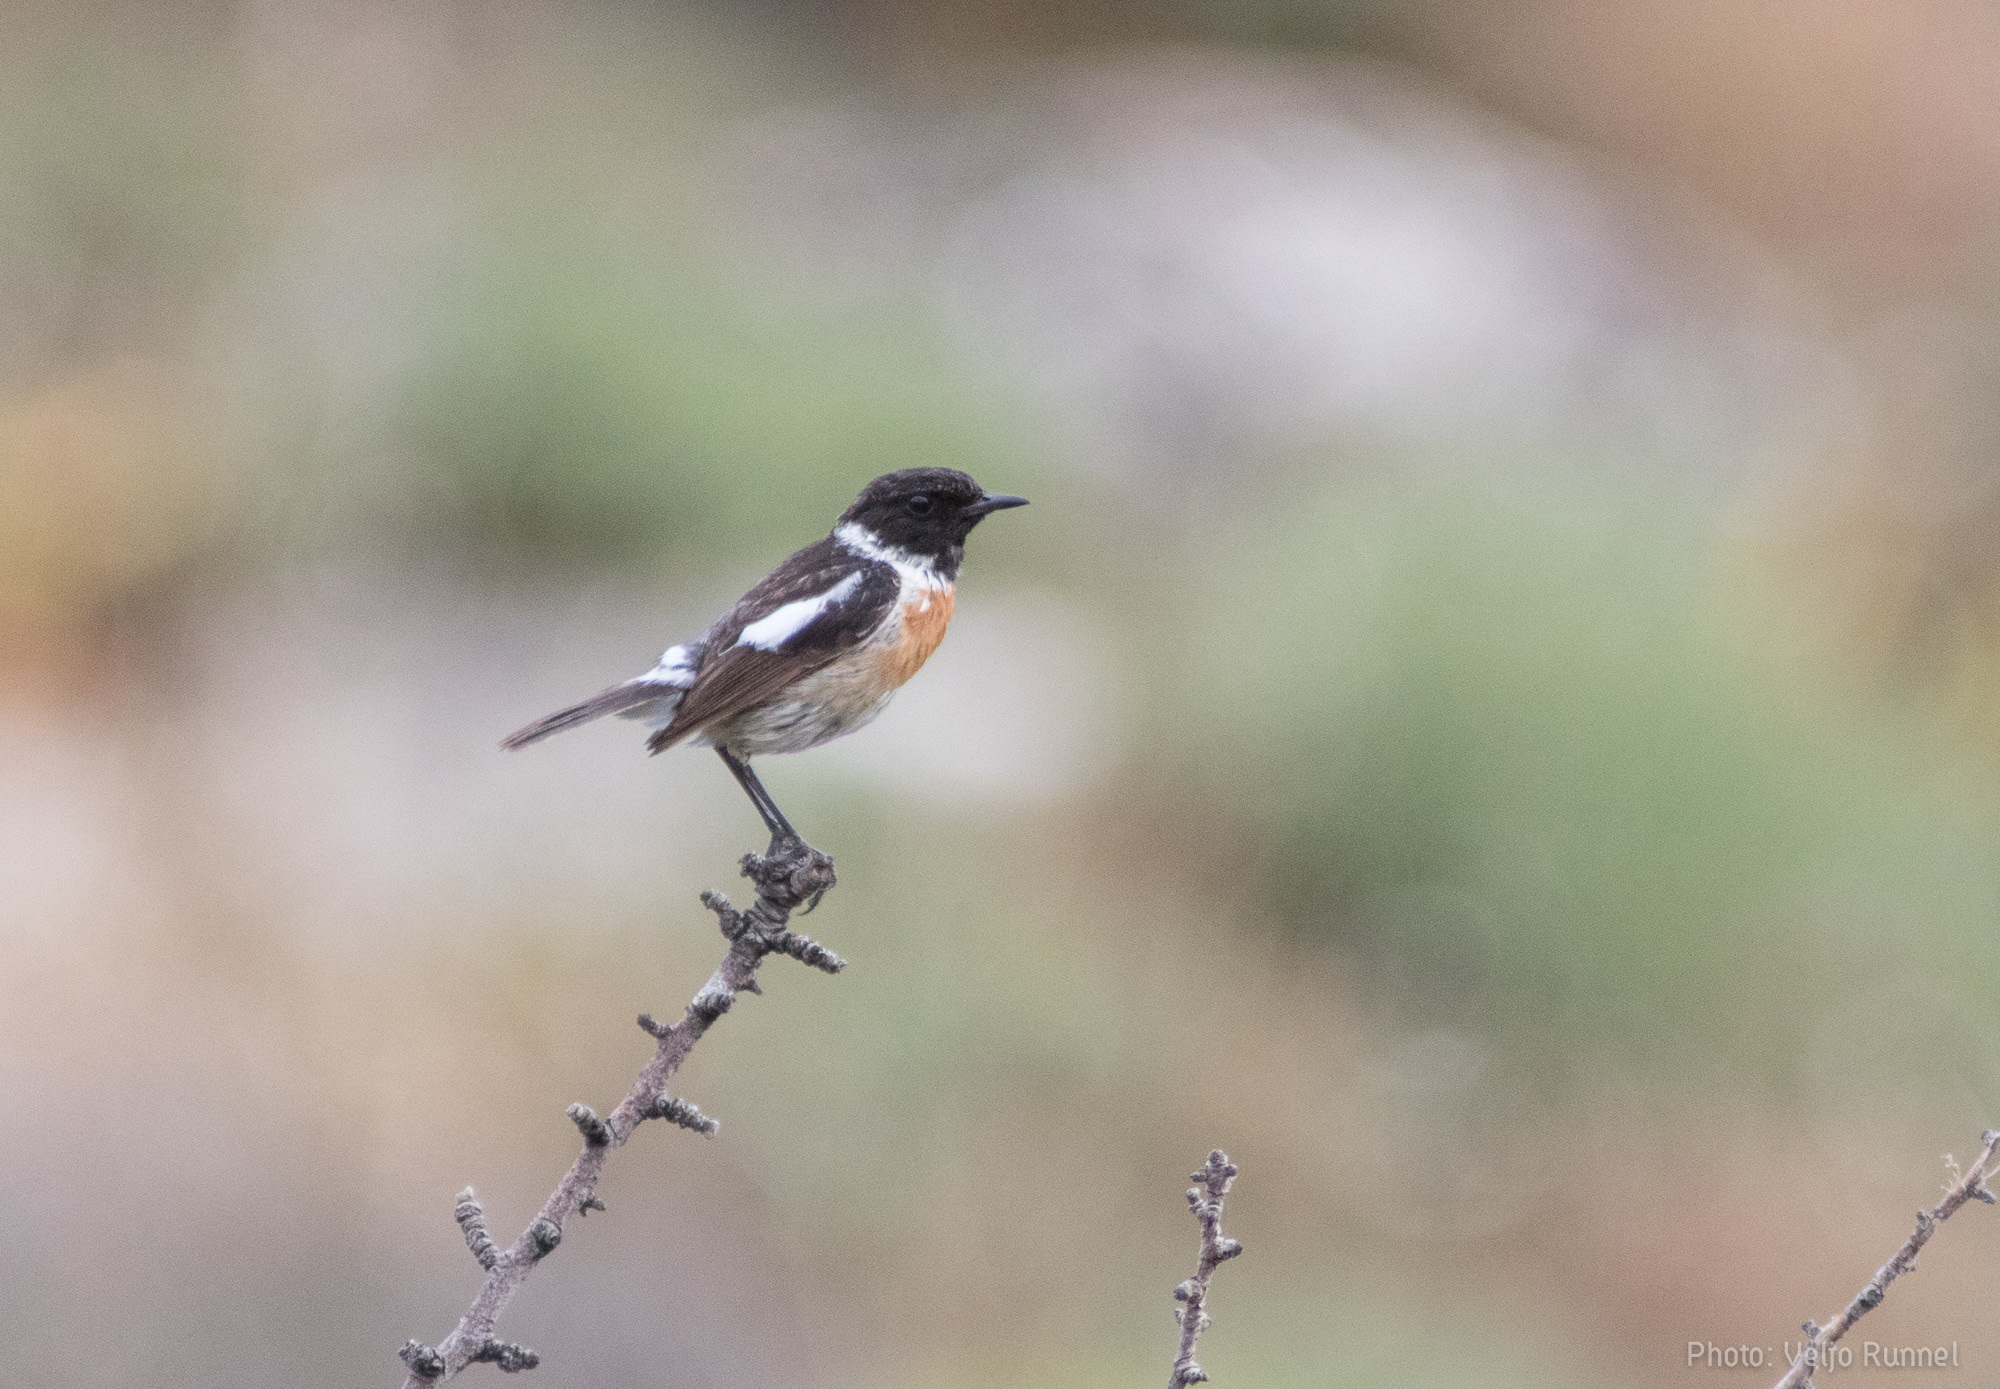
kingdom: Animalia
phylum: Chordata
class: Aves
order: Passeriformes
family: Muscicapidae
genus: Saxicola
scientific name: Saxicola rubicola
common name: European stonechat
